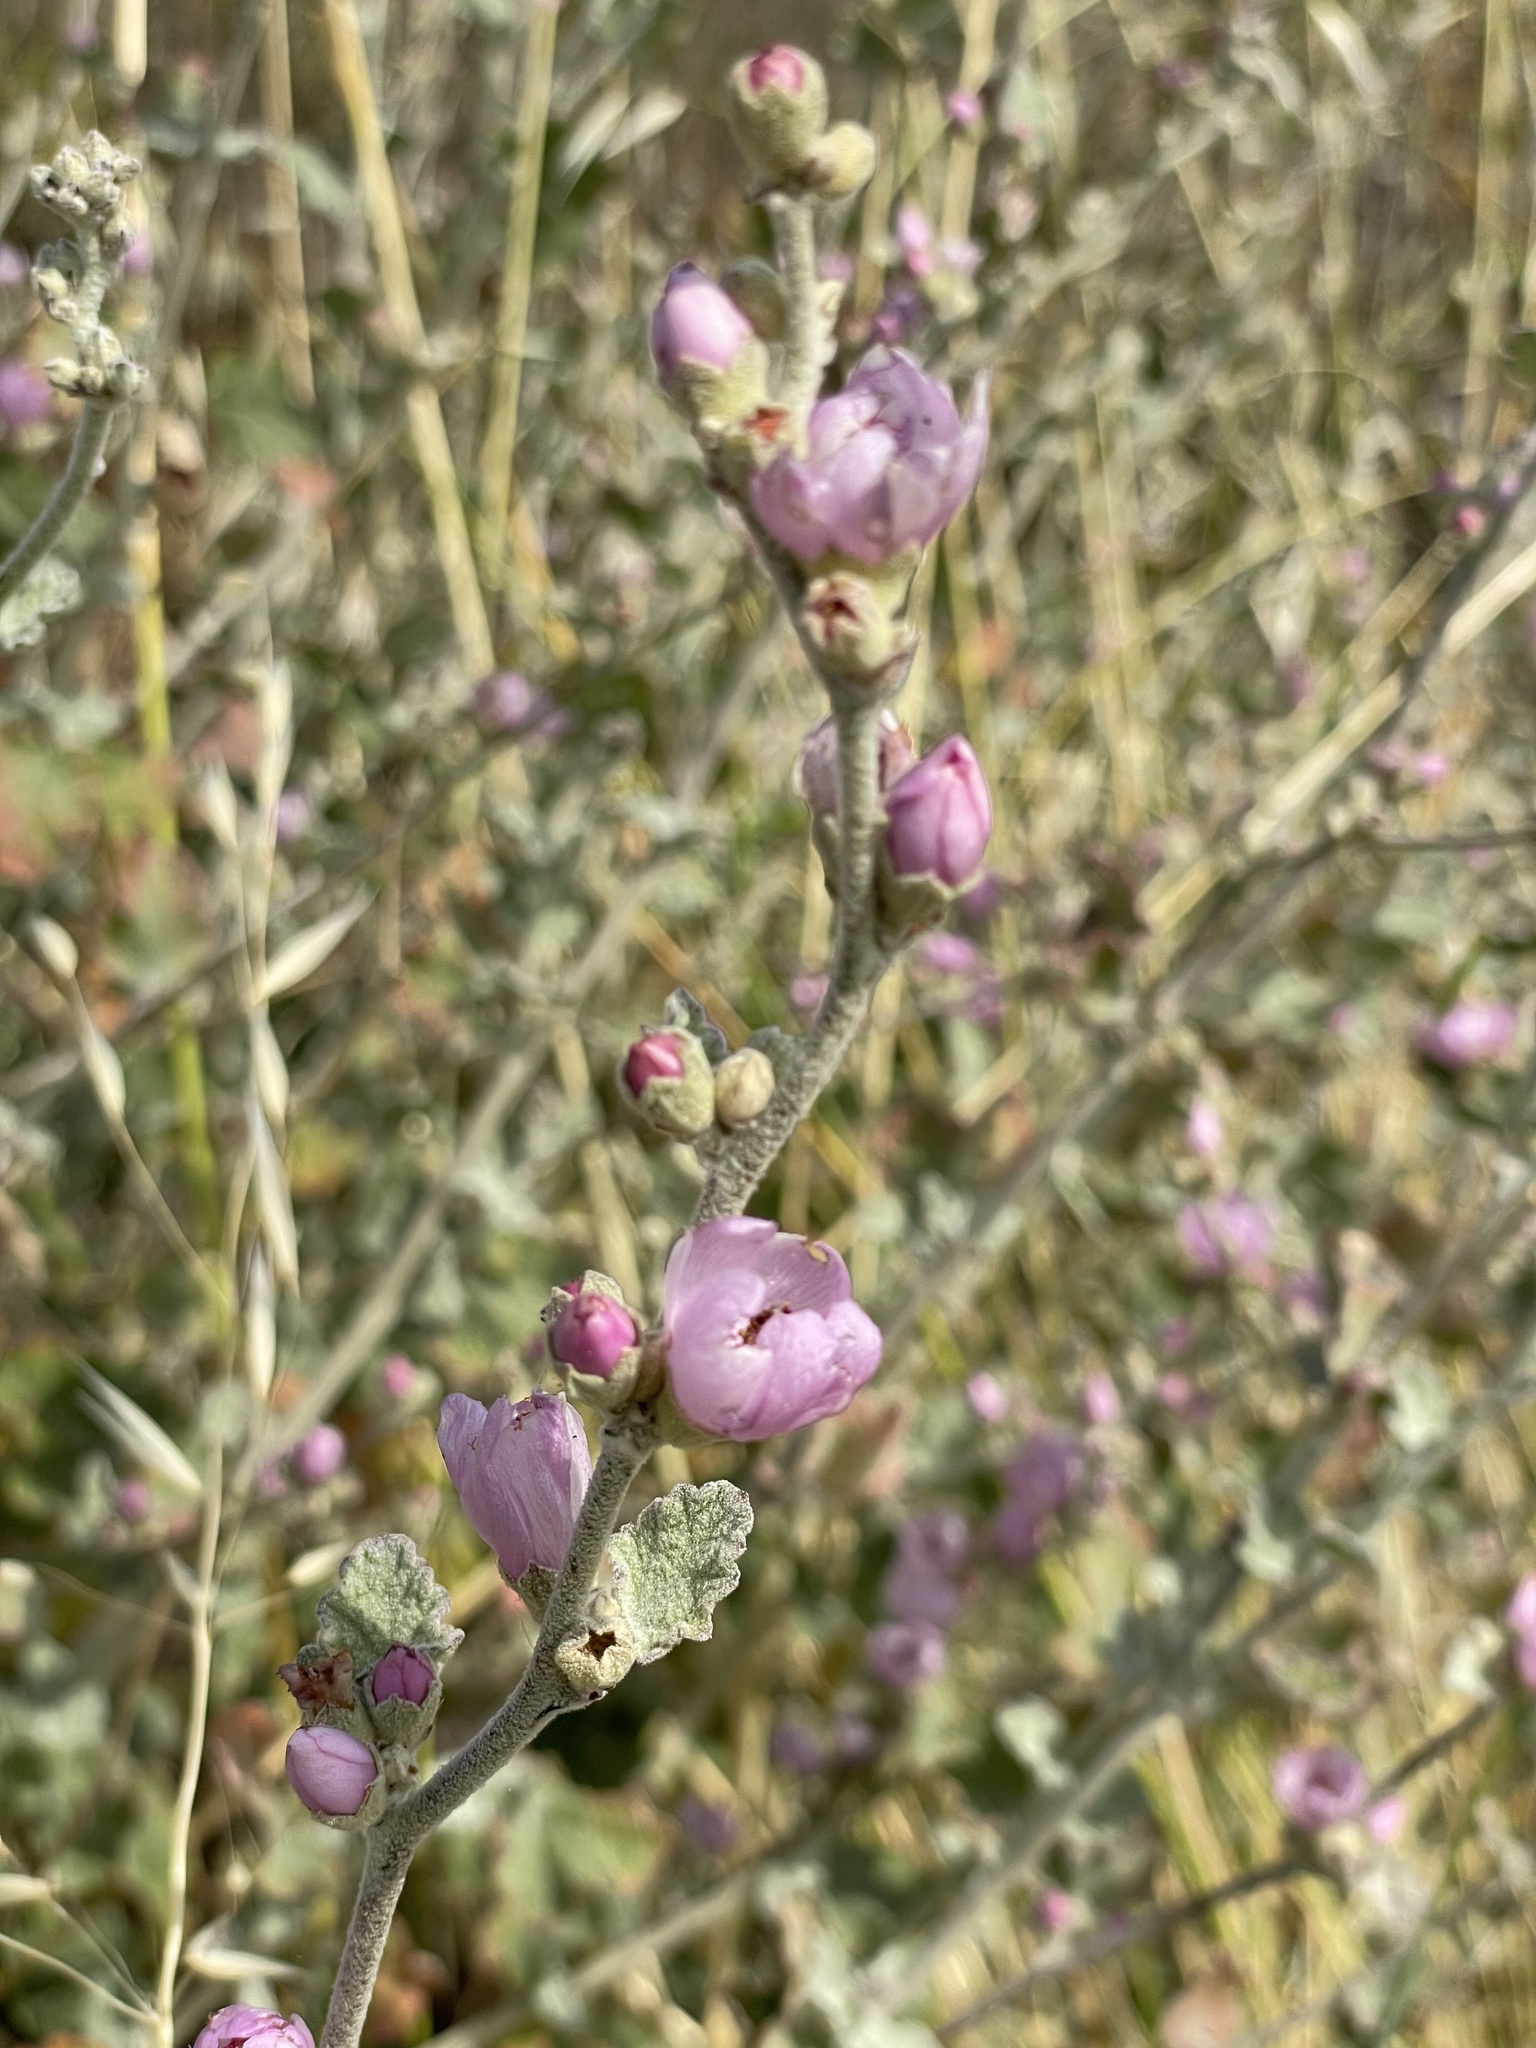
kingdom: Plantae
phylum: Tracheophyta
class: Magnoliopsida
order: Malvales
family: Malvaceae
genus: Malacothamnus
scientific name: Malacothamnus fasciculatus
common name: Sant cruz island bush-mallow
